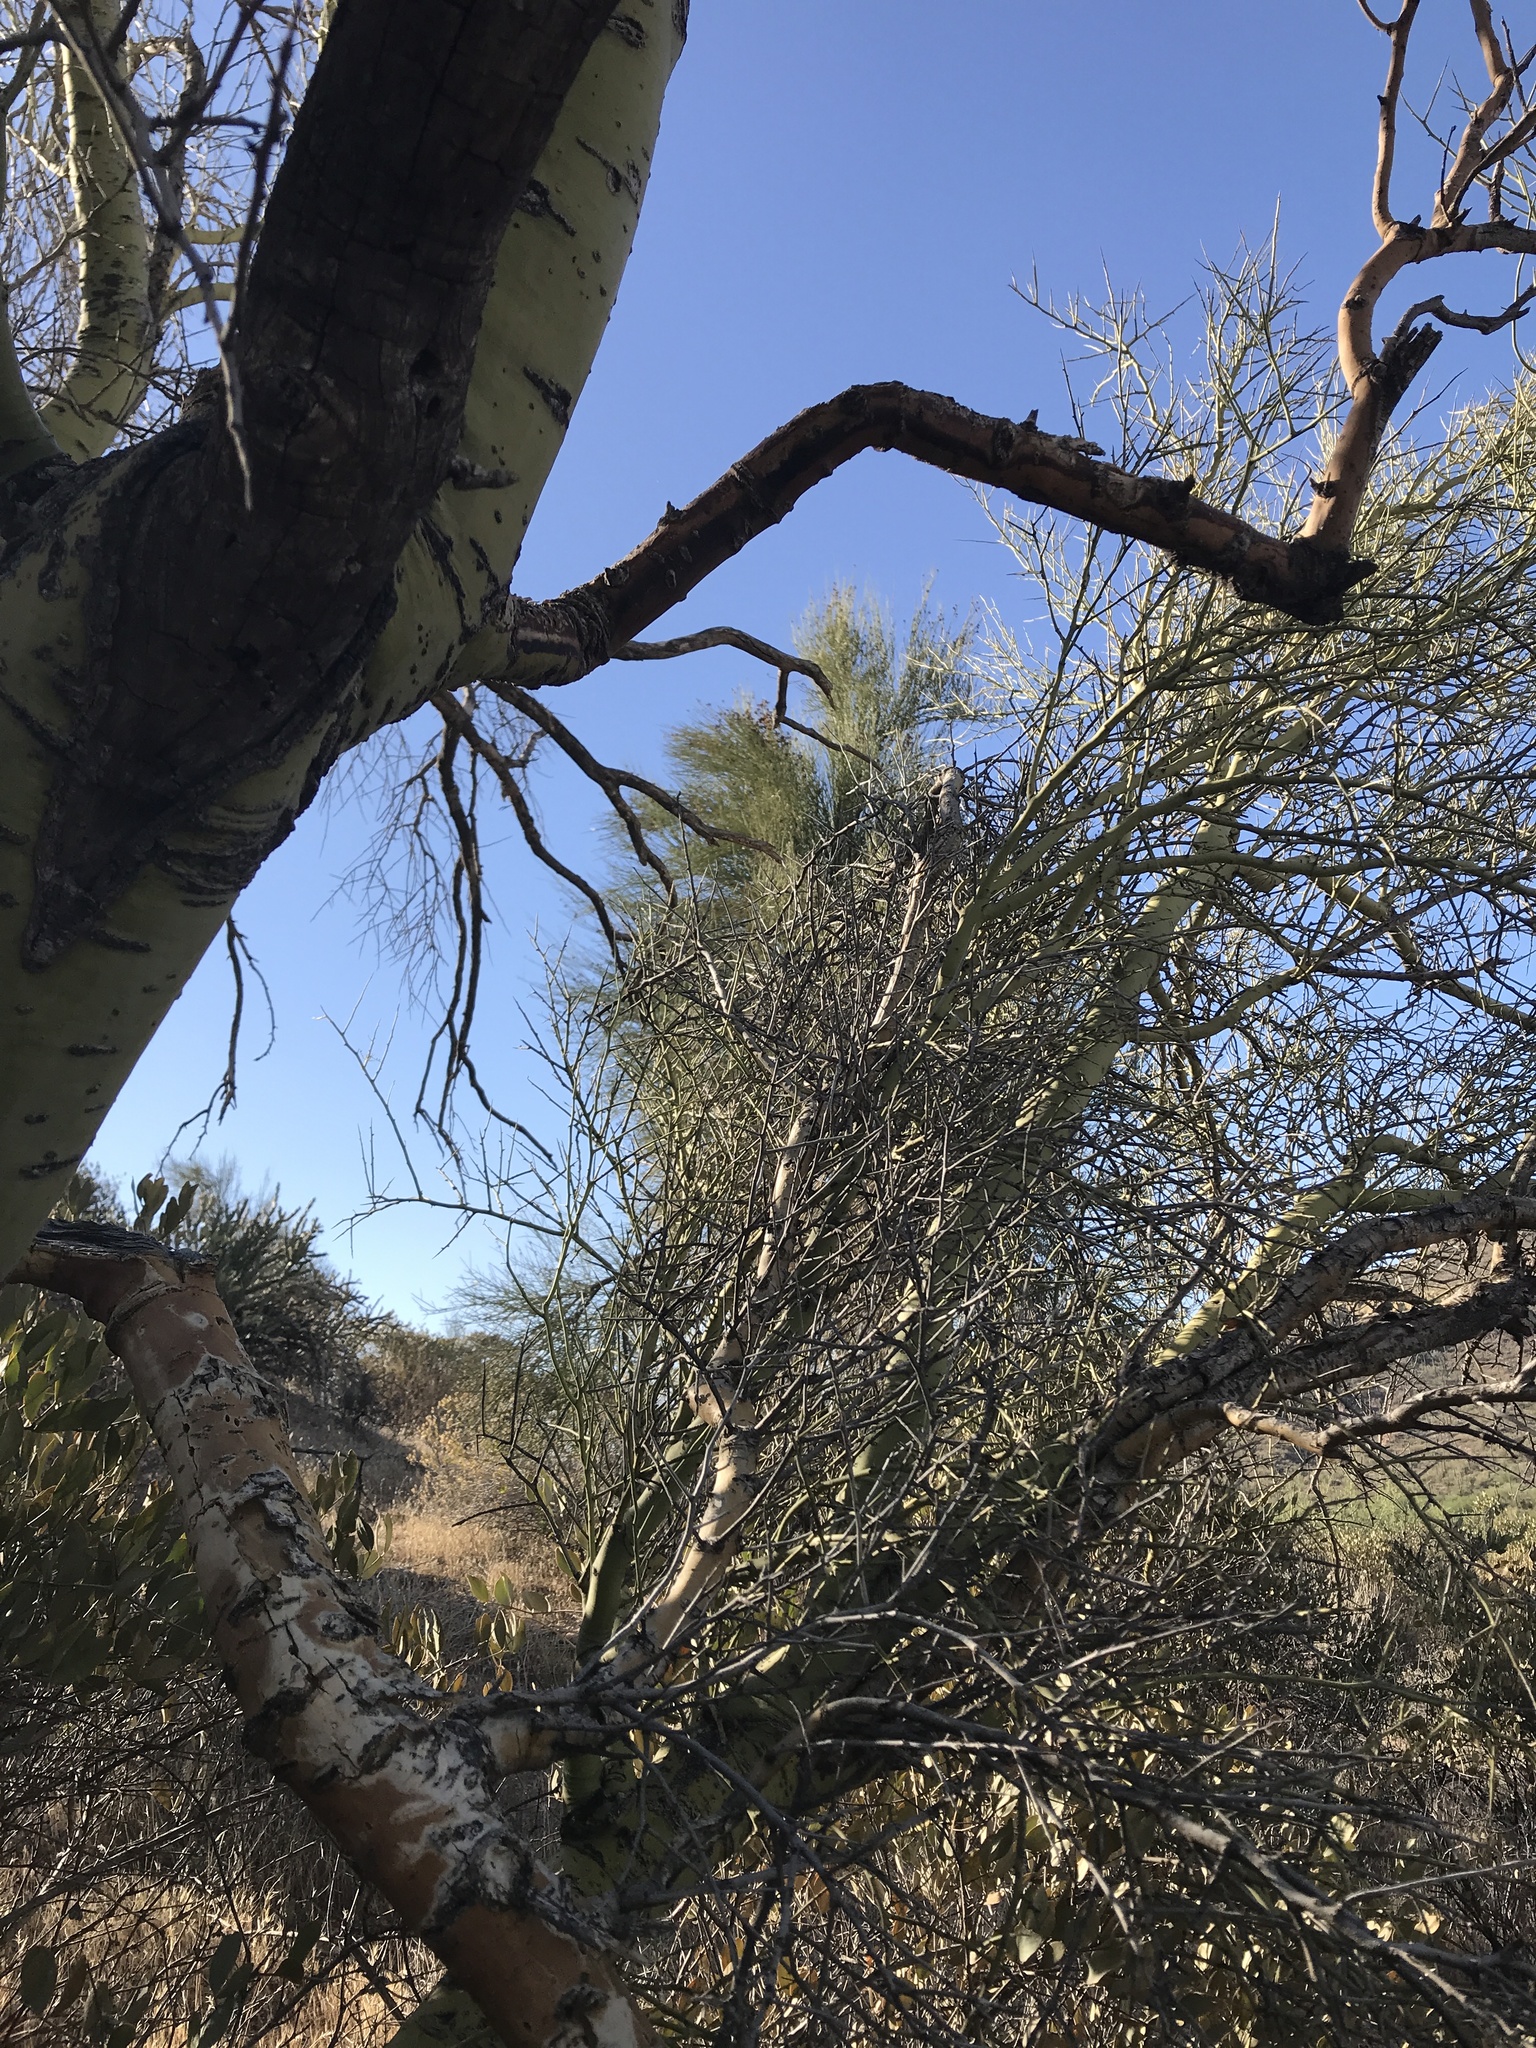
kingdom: Plantae
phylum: Tracheophyta
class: Magnoliopsida
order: Fabales
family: Fabaceae
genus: Parkinsonia
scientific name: Parkinsonia microphylla
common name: Yellow paloverde
